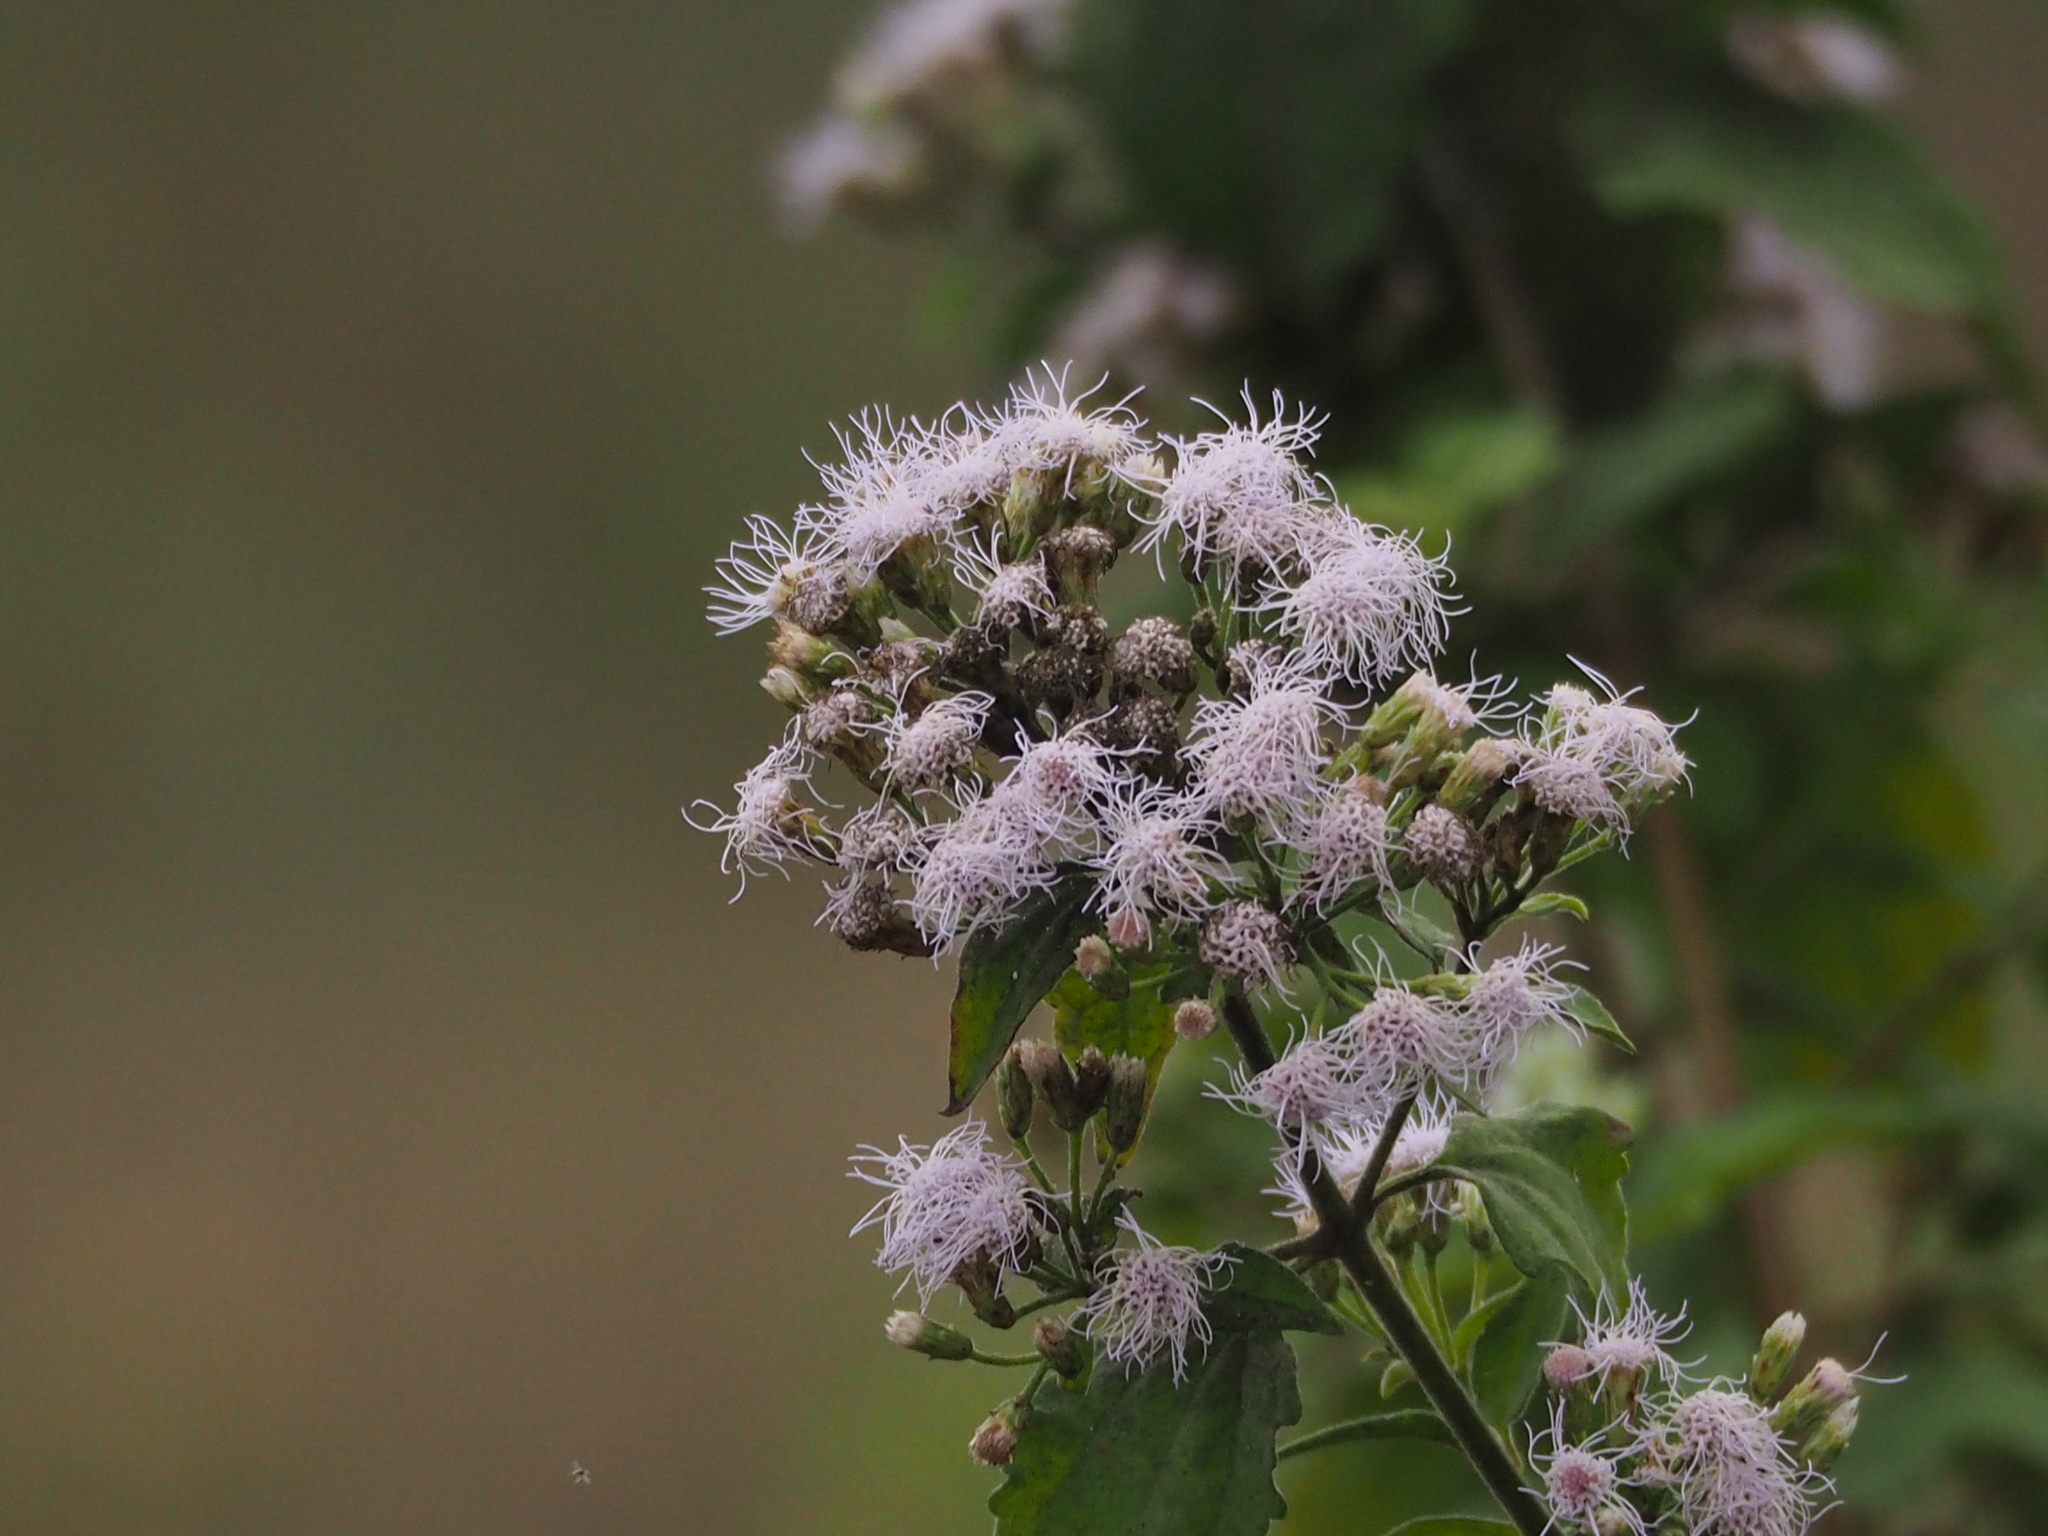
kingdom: Plantae
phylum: Tracheophyta
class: Magnoliopsida
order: Asterales
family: Asteraceae
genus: Chromolaena
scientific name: Chromolaena odorata
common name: Siamweed
